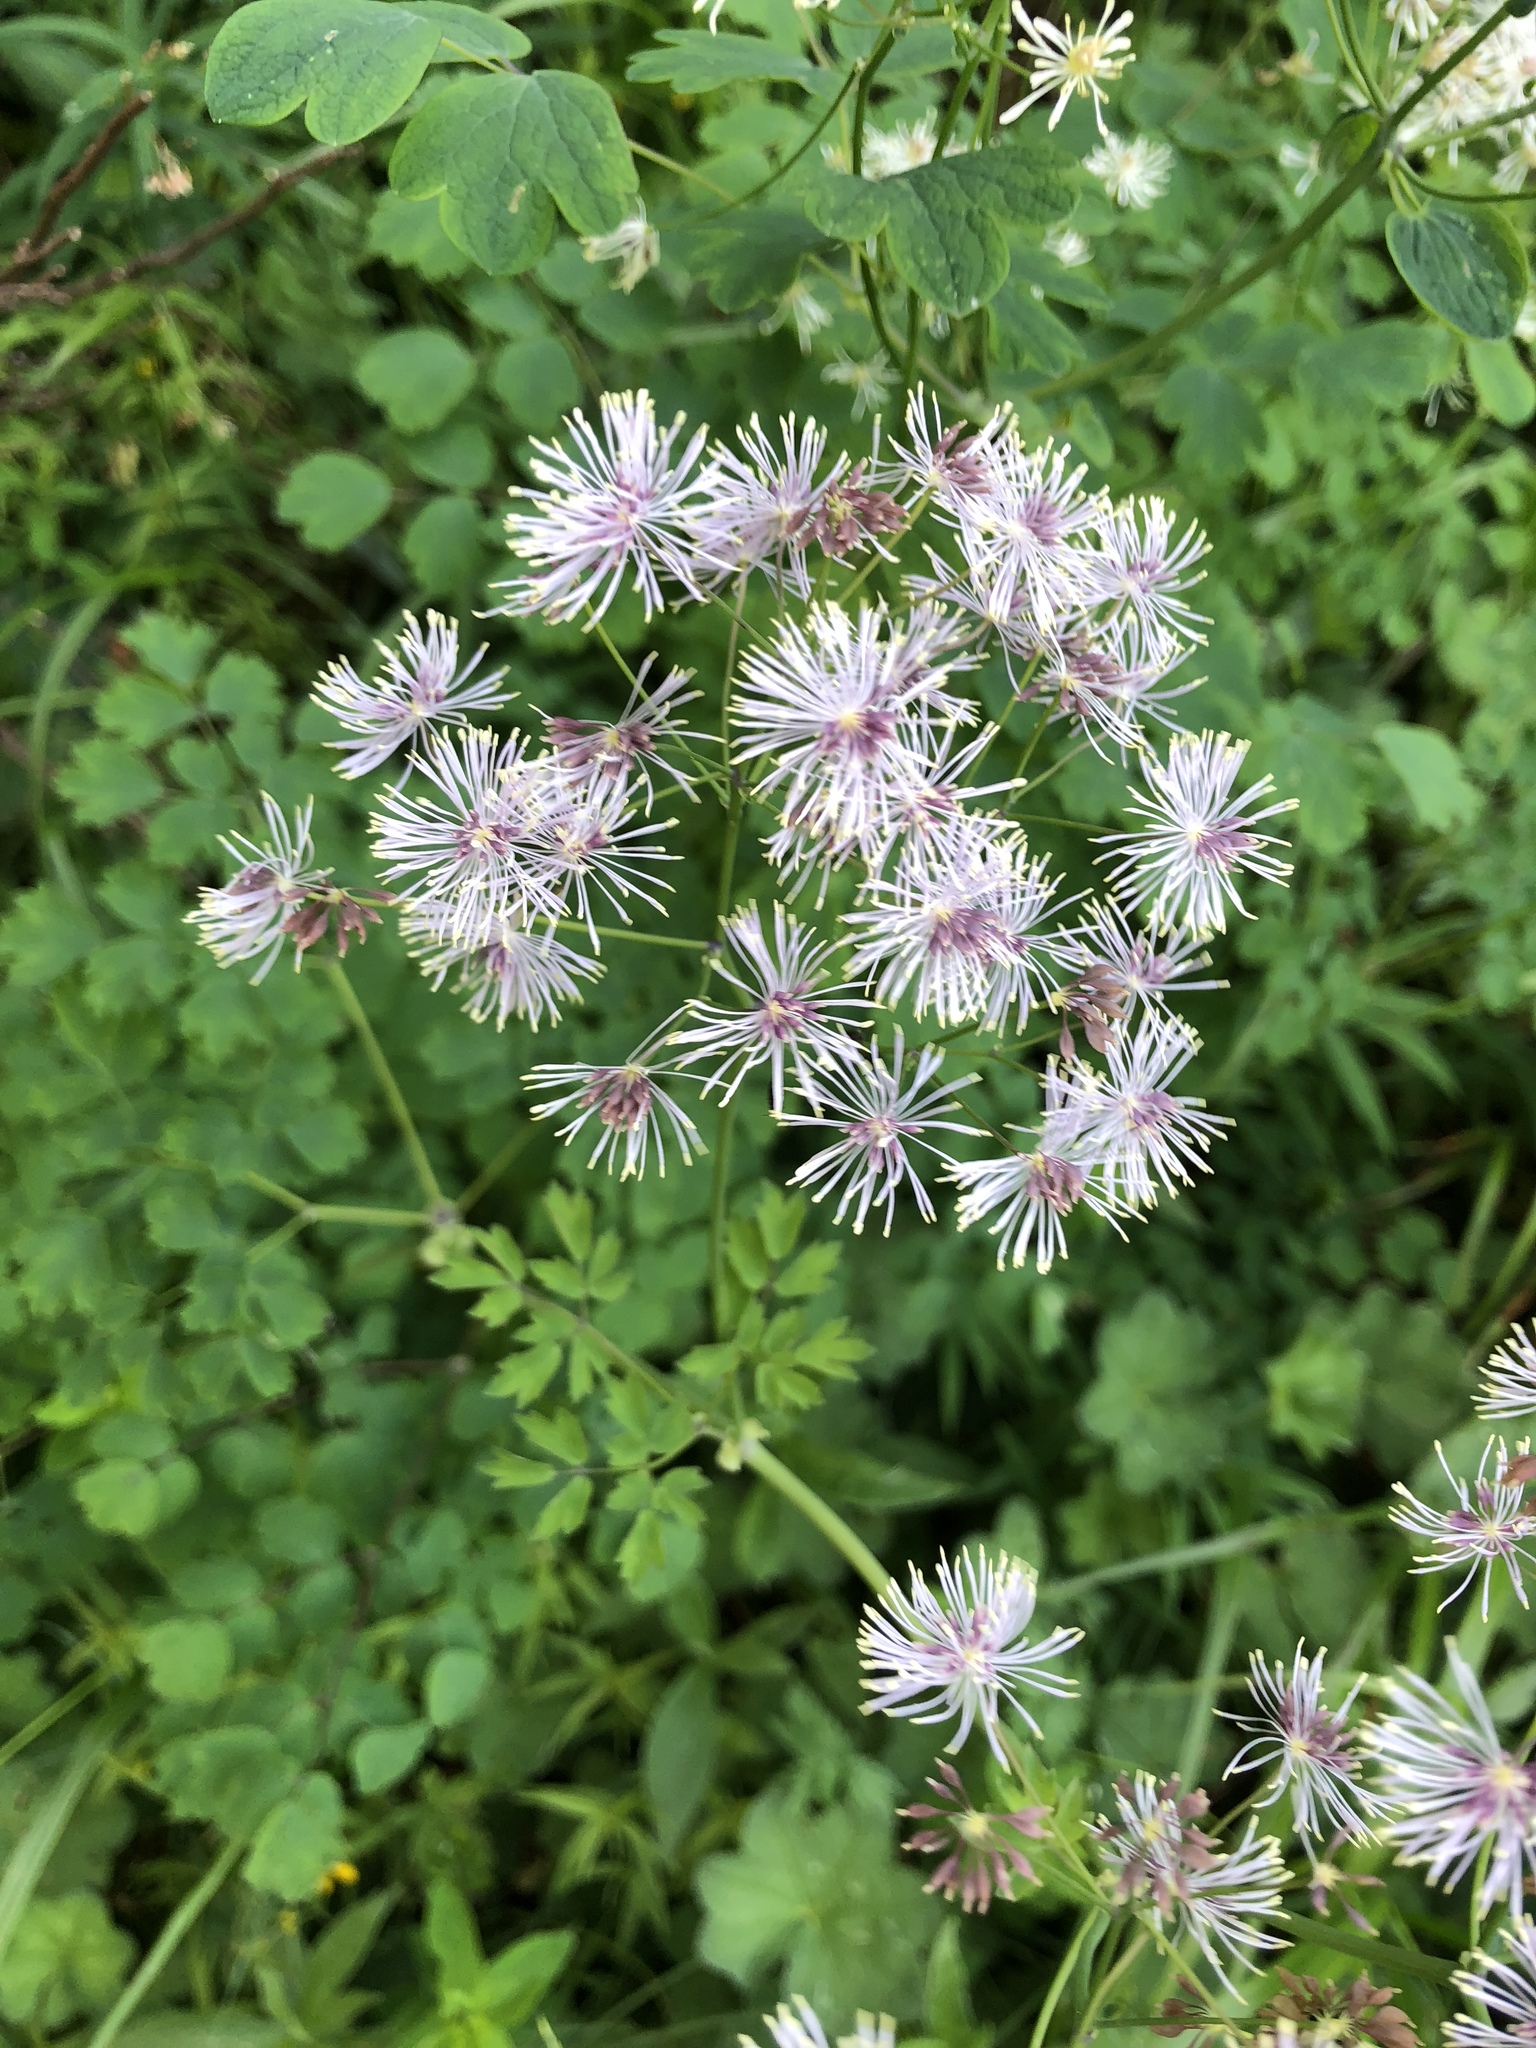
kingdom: Plantae
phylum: Tracheophyta
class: Magnoliopsida
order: Ranunculales
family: Ranunculaceae
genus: Thalictrum
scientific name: Thalictrum aquilegiifolium
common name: French meadow-rue
